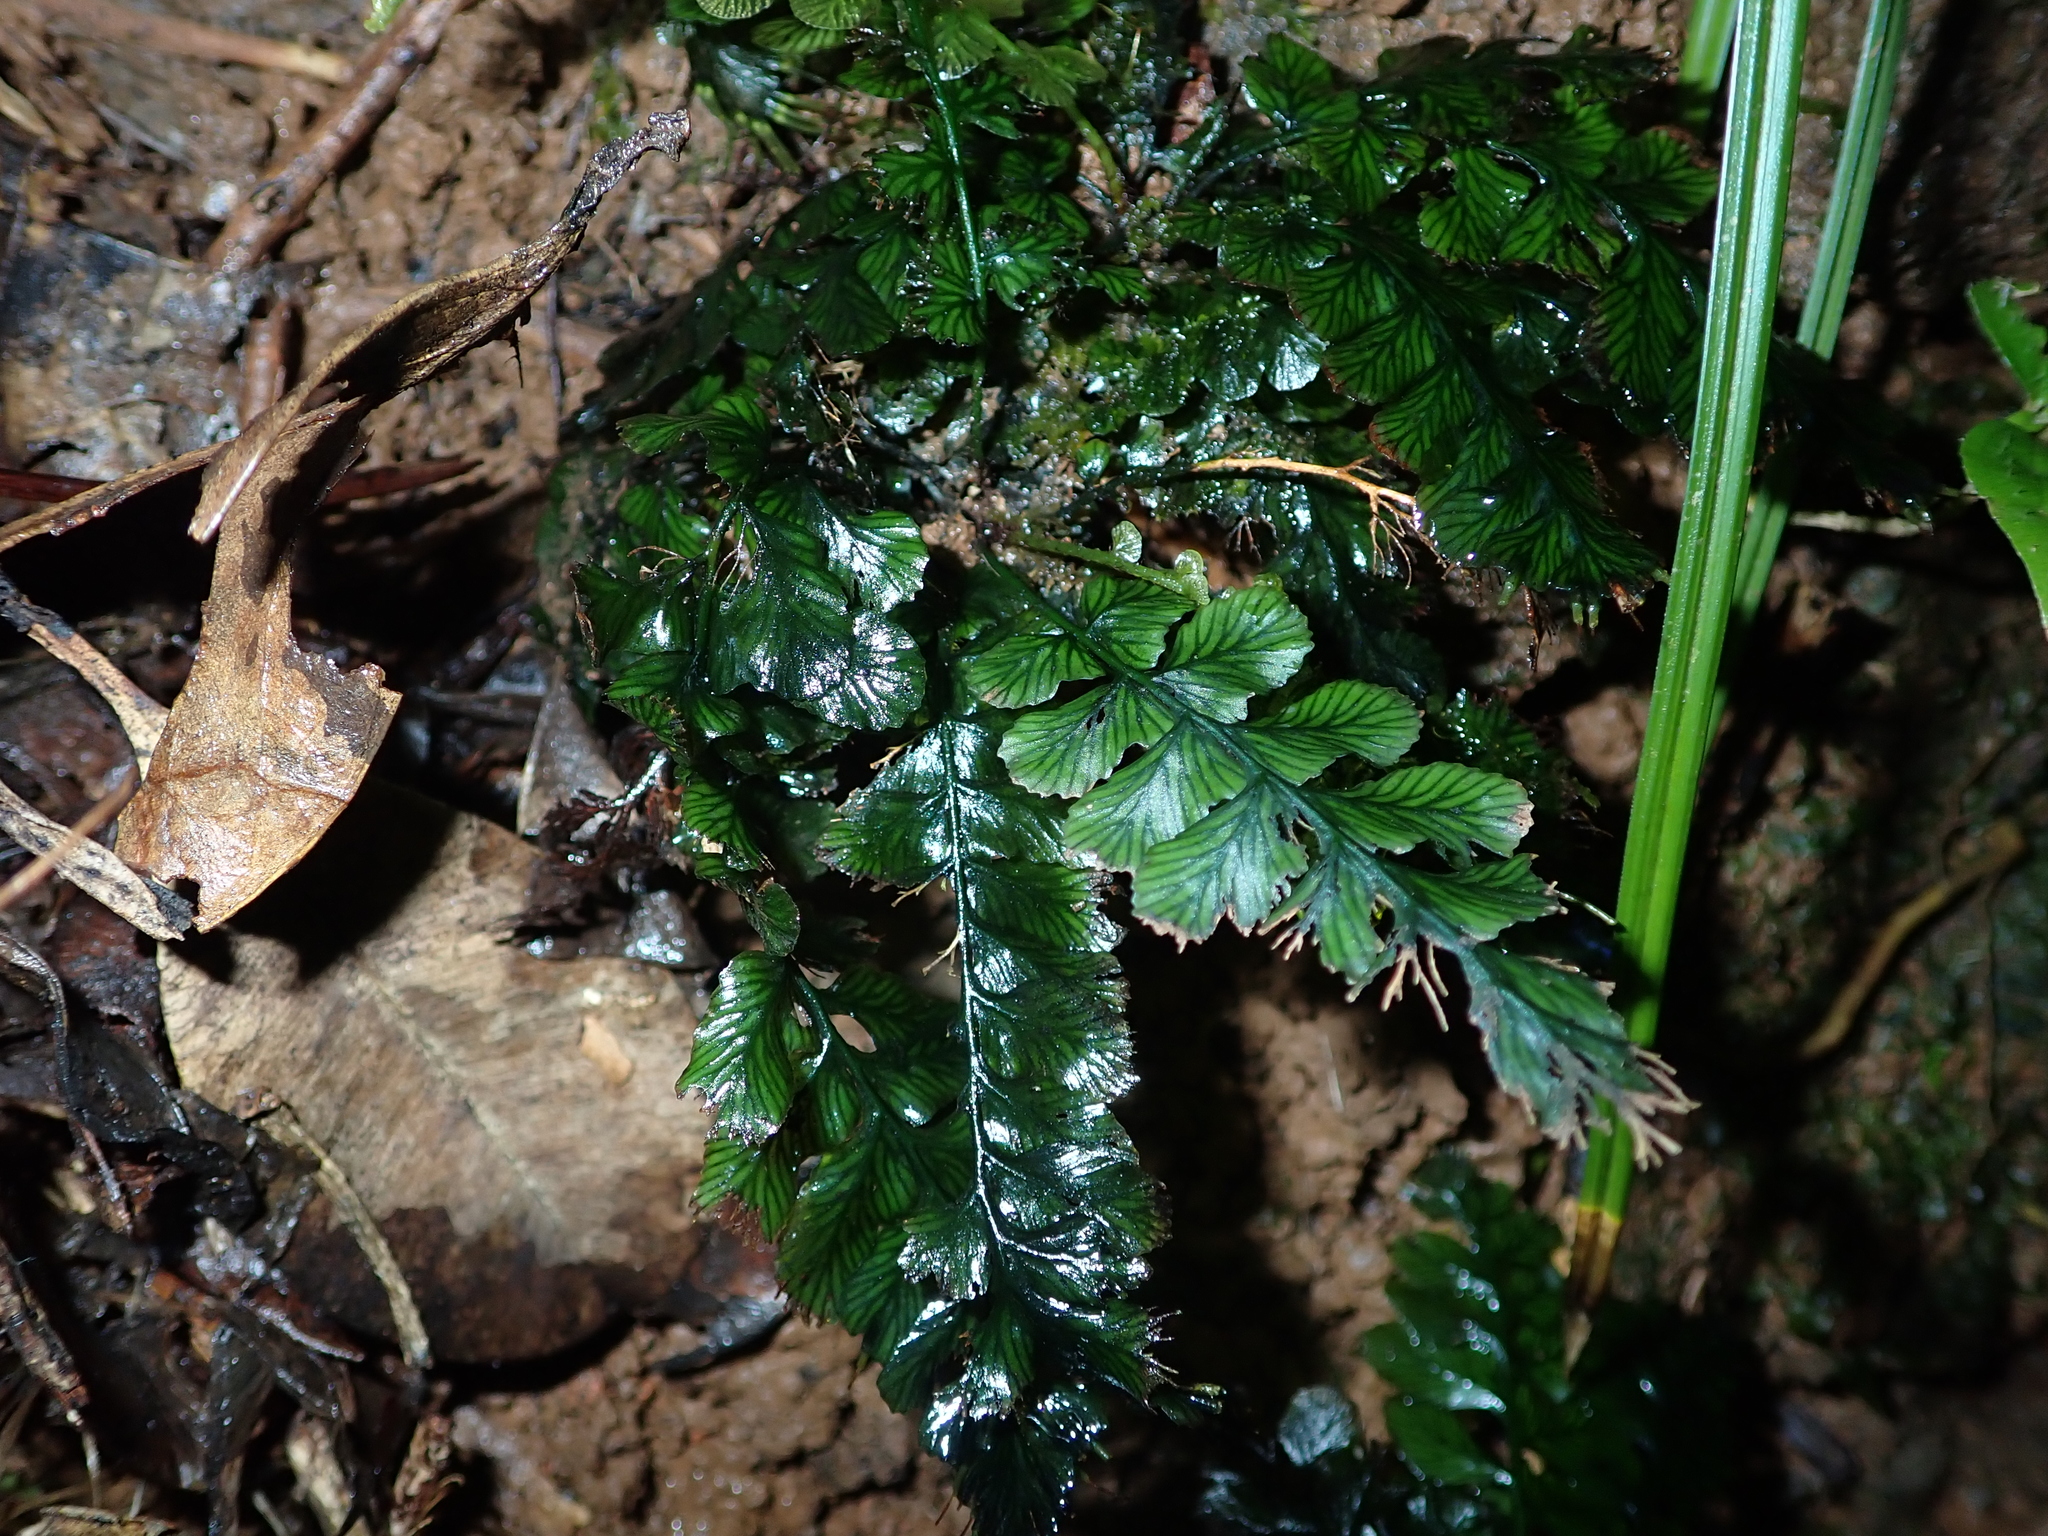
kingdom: Plantae
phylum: Tracheophyta
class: Polypodiopsida
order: Hymenophyllales
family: Hymenophyllaceae
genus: Cephalomanes
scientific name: Cephalomanes laciniatum
